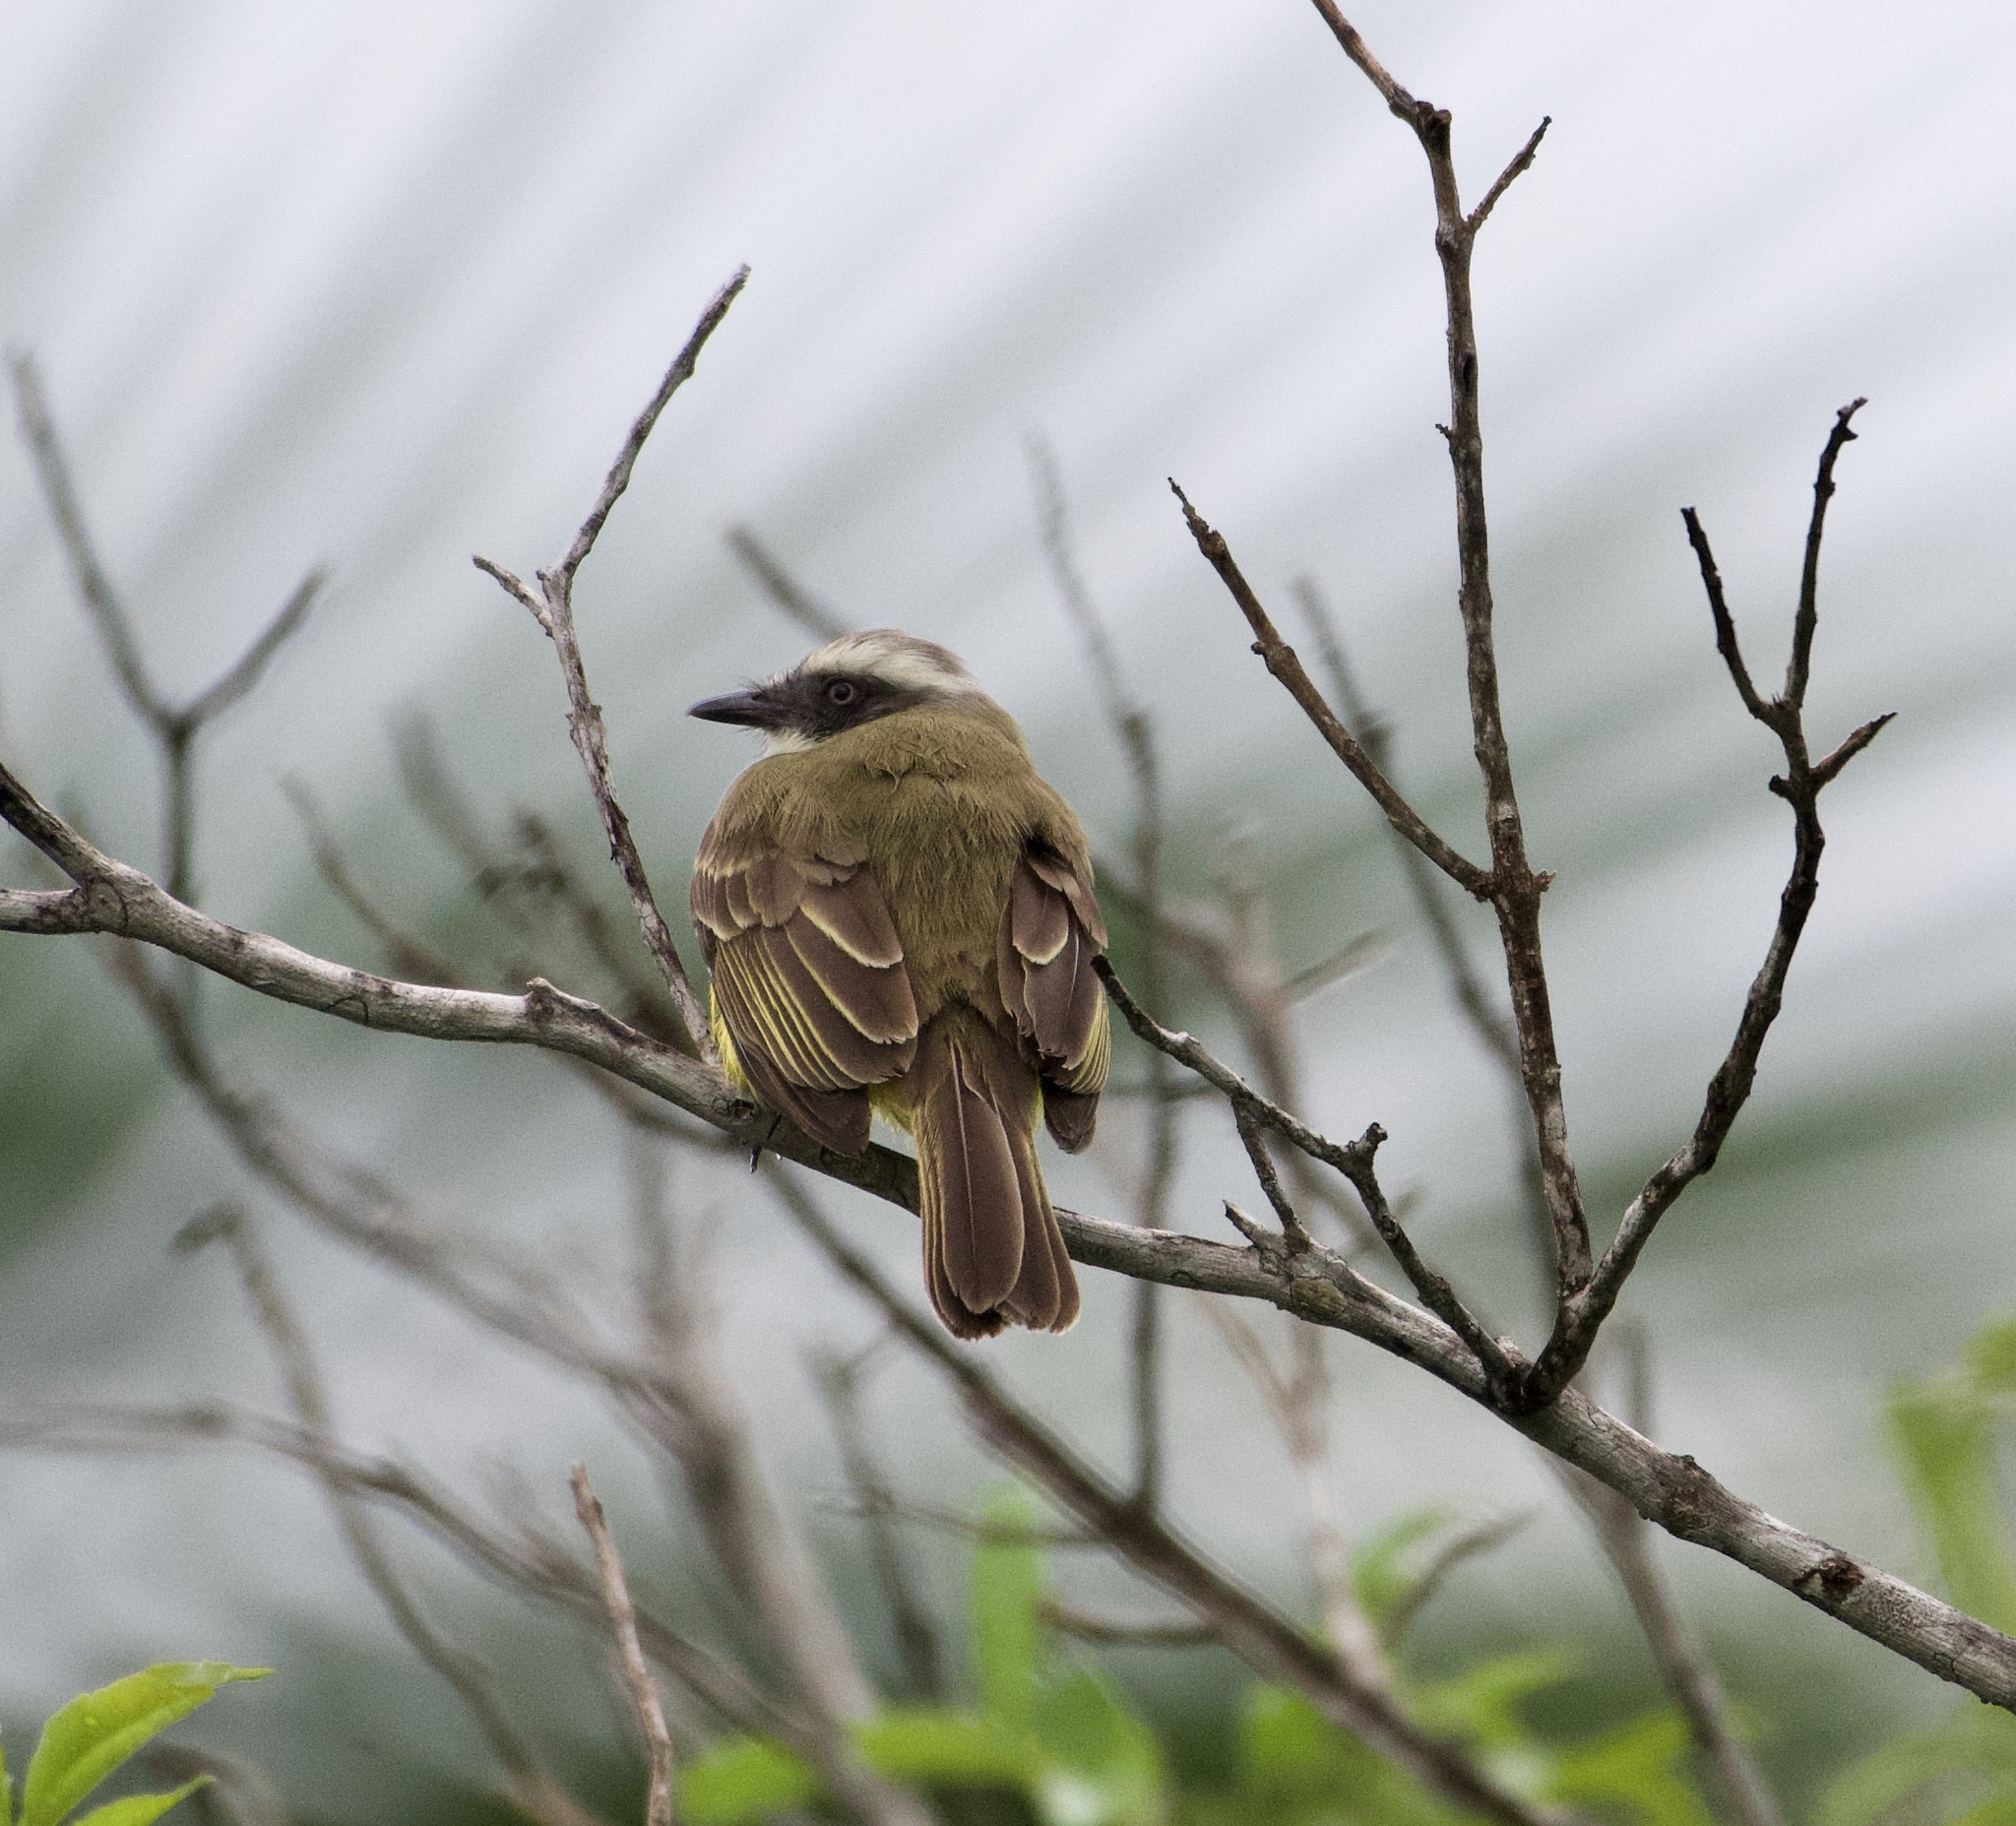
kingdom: Animalia
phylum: Chordata
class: Aves
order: Passeriformes
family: Tyrannidae
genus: Myiozetetes
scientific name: Myiozetetes granadensis
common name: Gray-capped flycatcher
